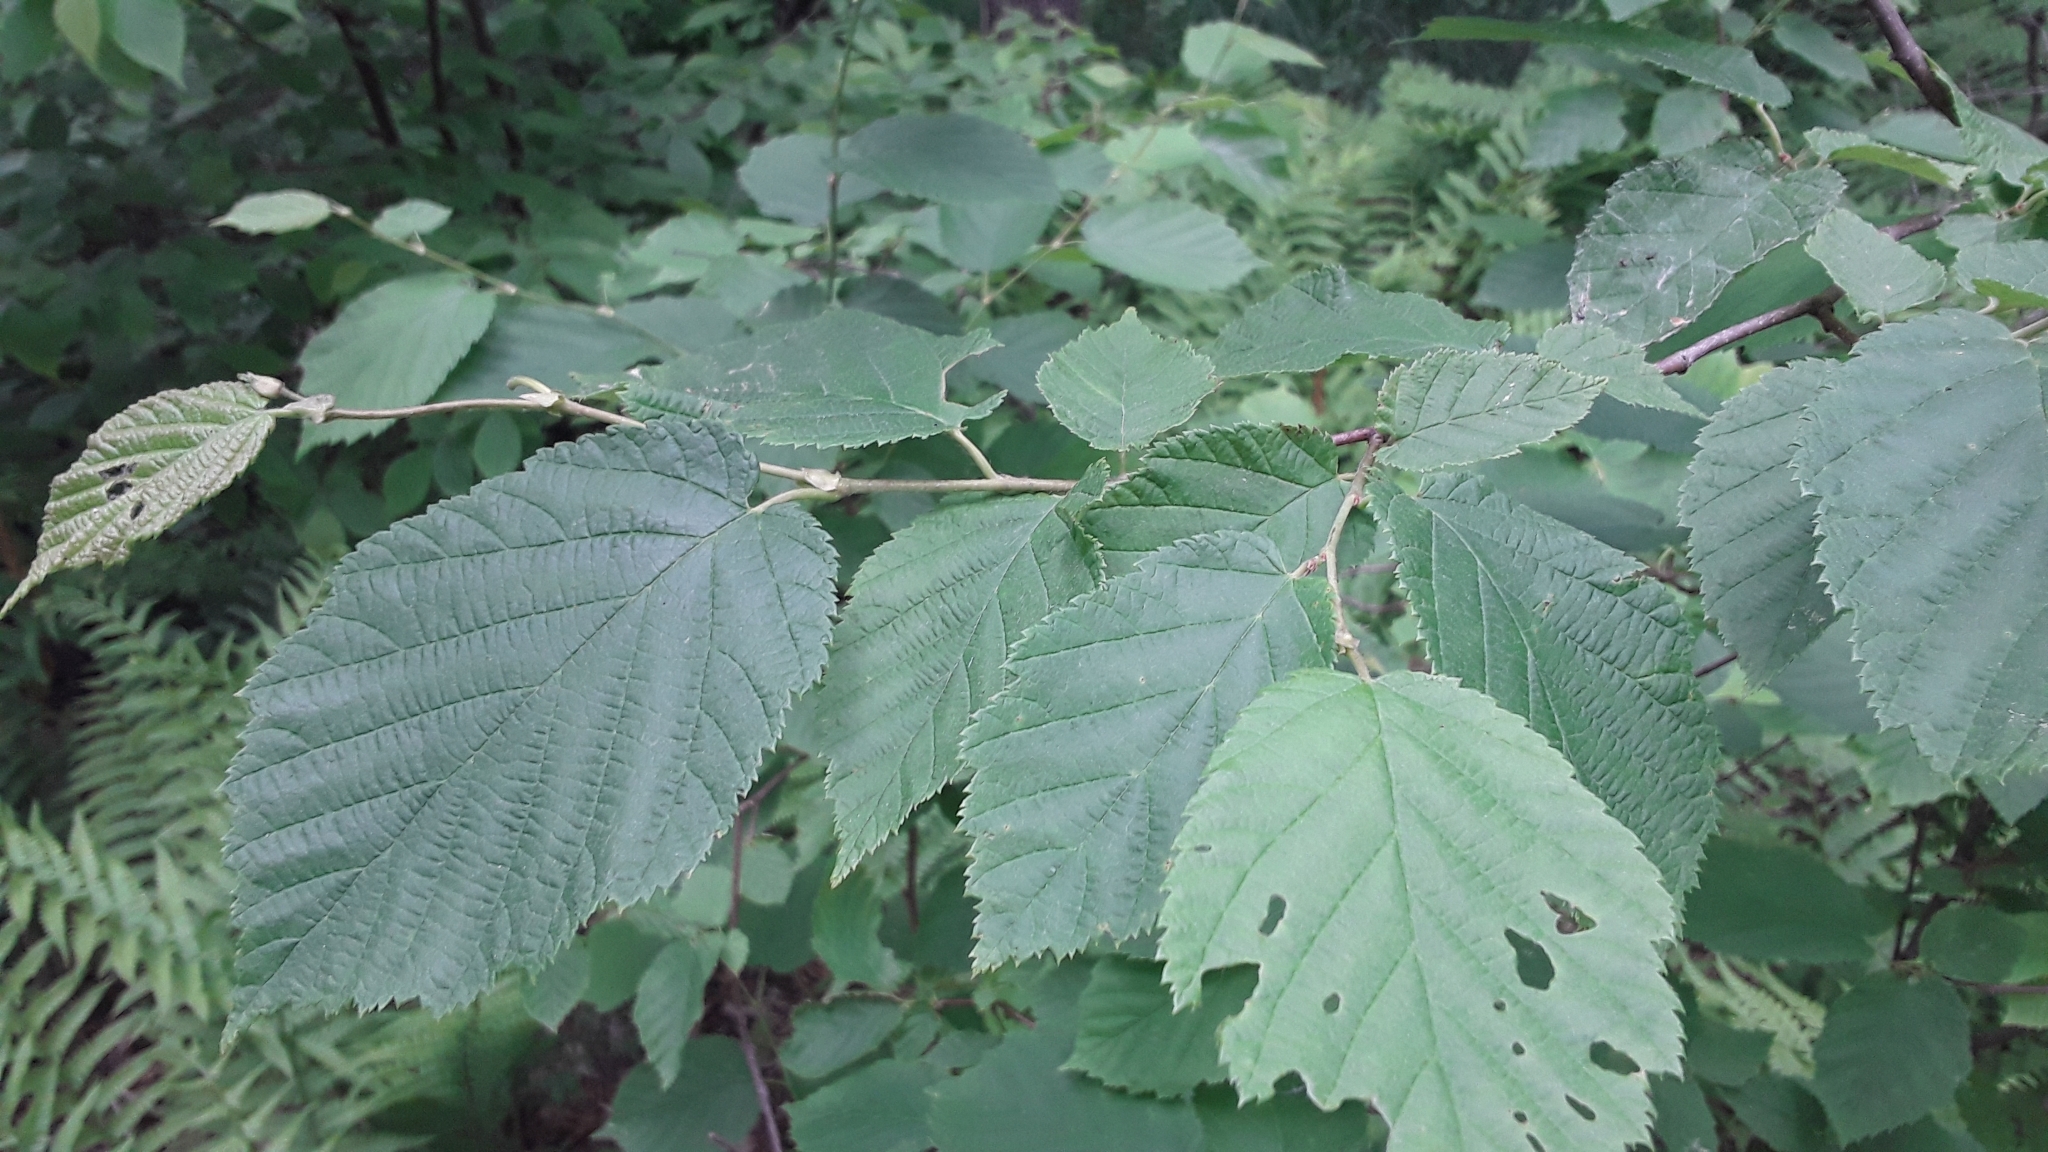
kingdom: Plantae
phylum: Tracheophyta
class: Magnoliopsida
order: Fagales
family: Betulaceae
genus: Corylus
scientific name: Corylus cornuta
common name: Beaked hazel
